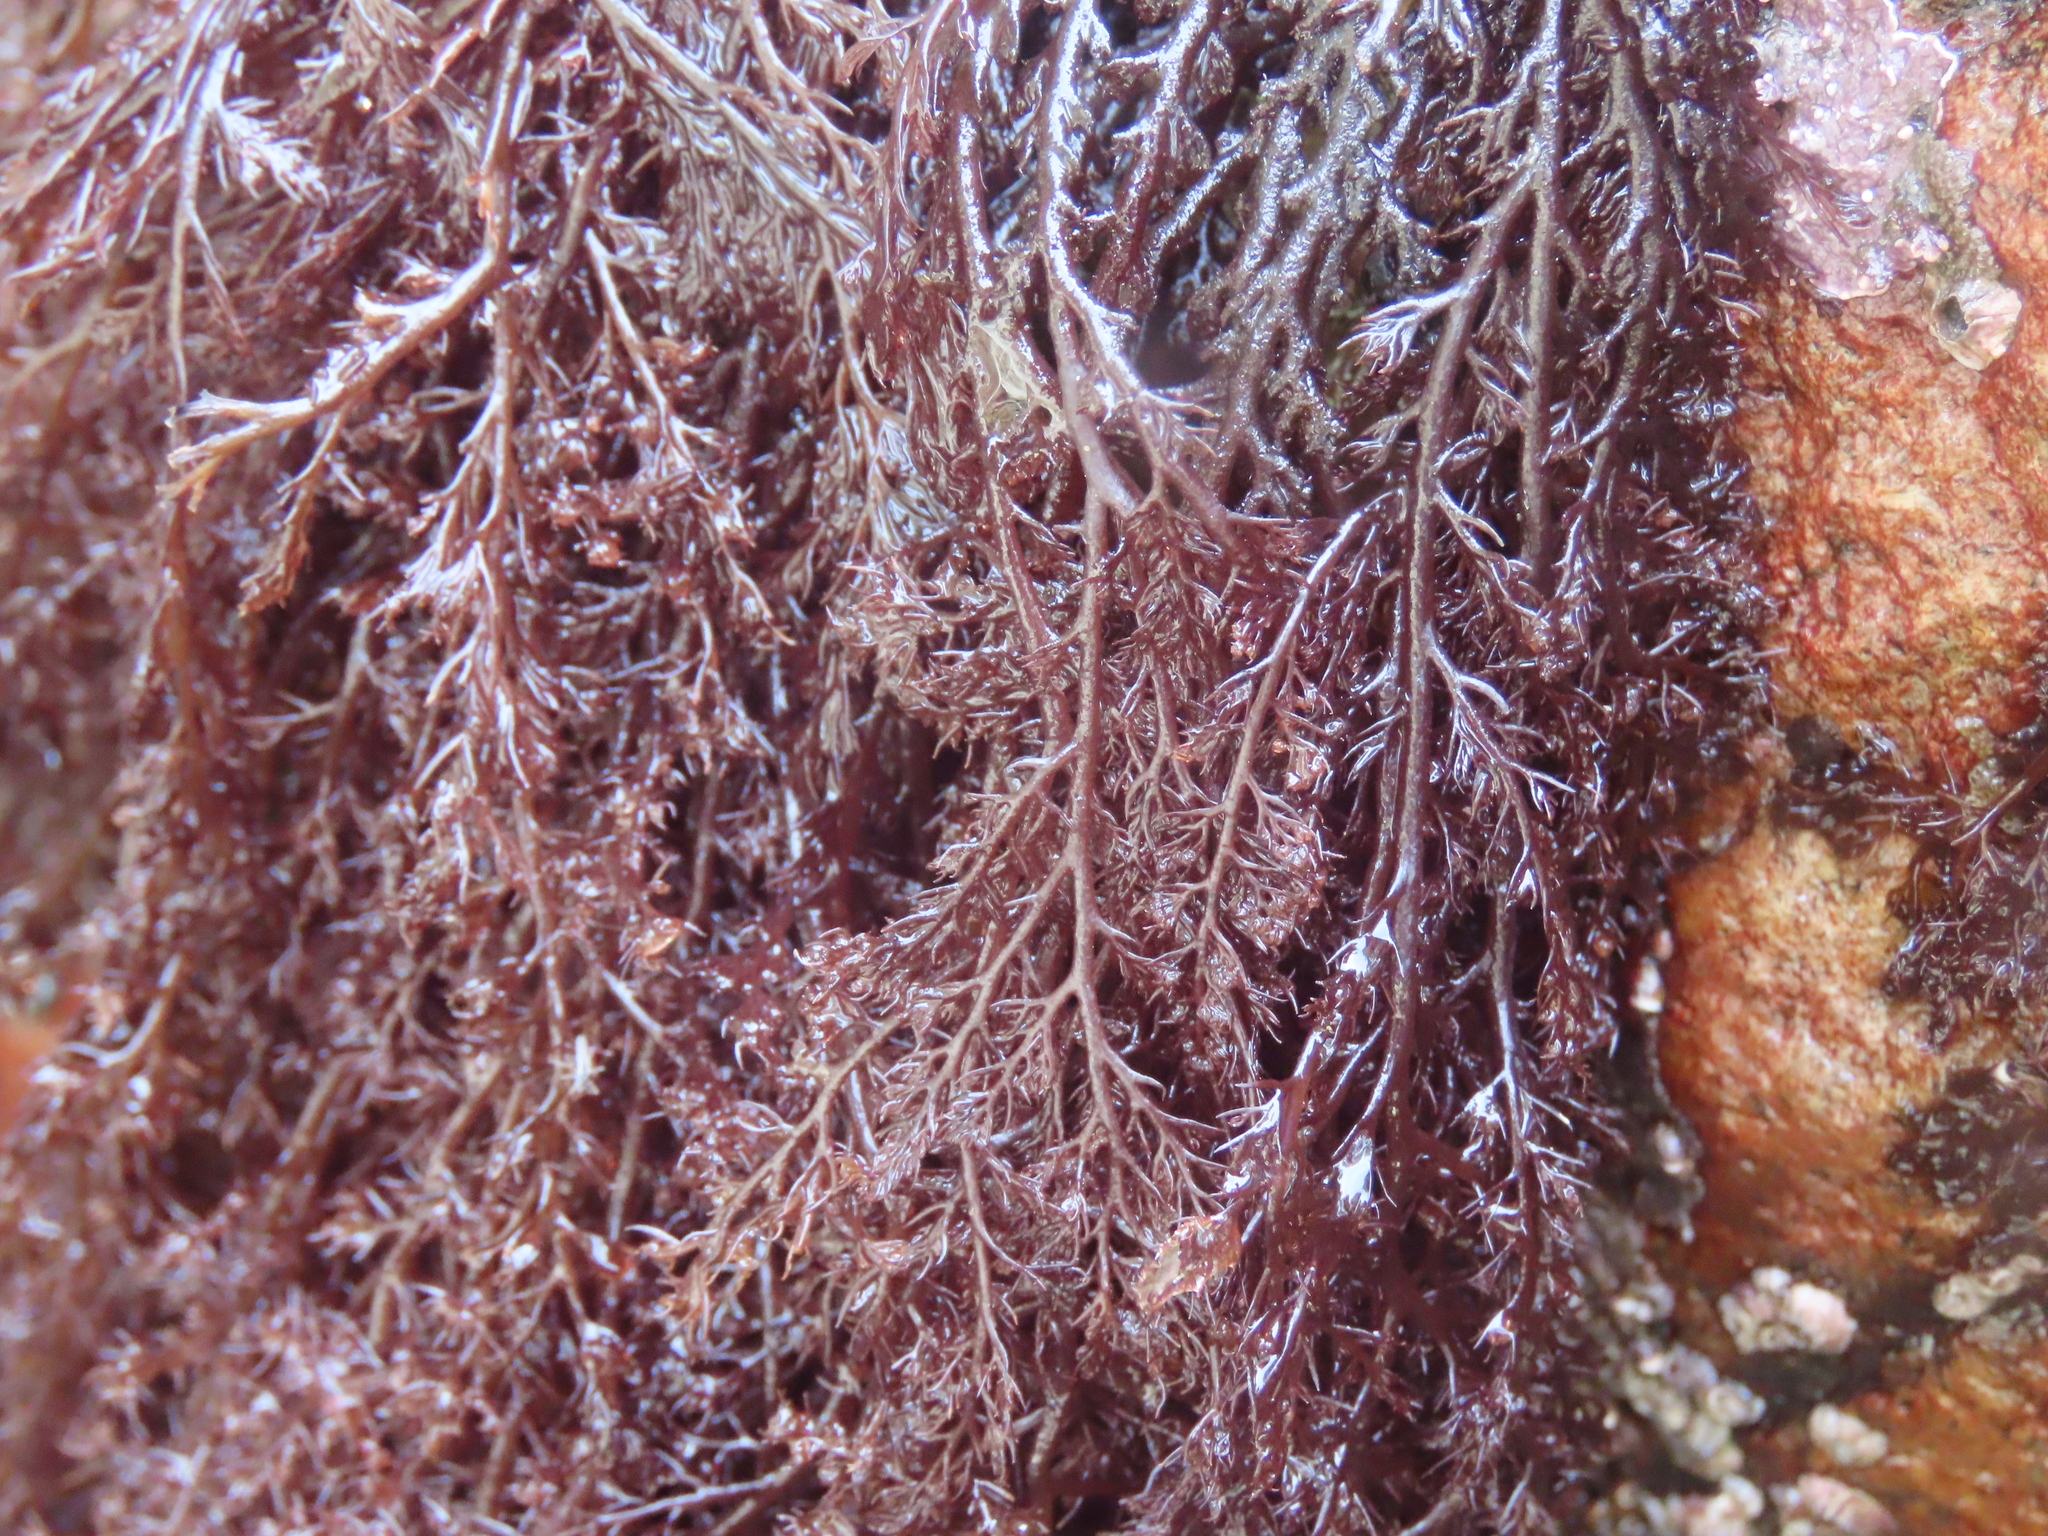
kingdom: Plantae
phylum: Rhodophyta
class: Florideophyceae
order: Ceramiales
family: Rhodomelaceae
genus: Odonthalia
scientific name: Odonthalia floccosa
